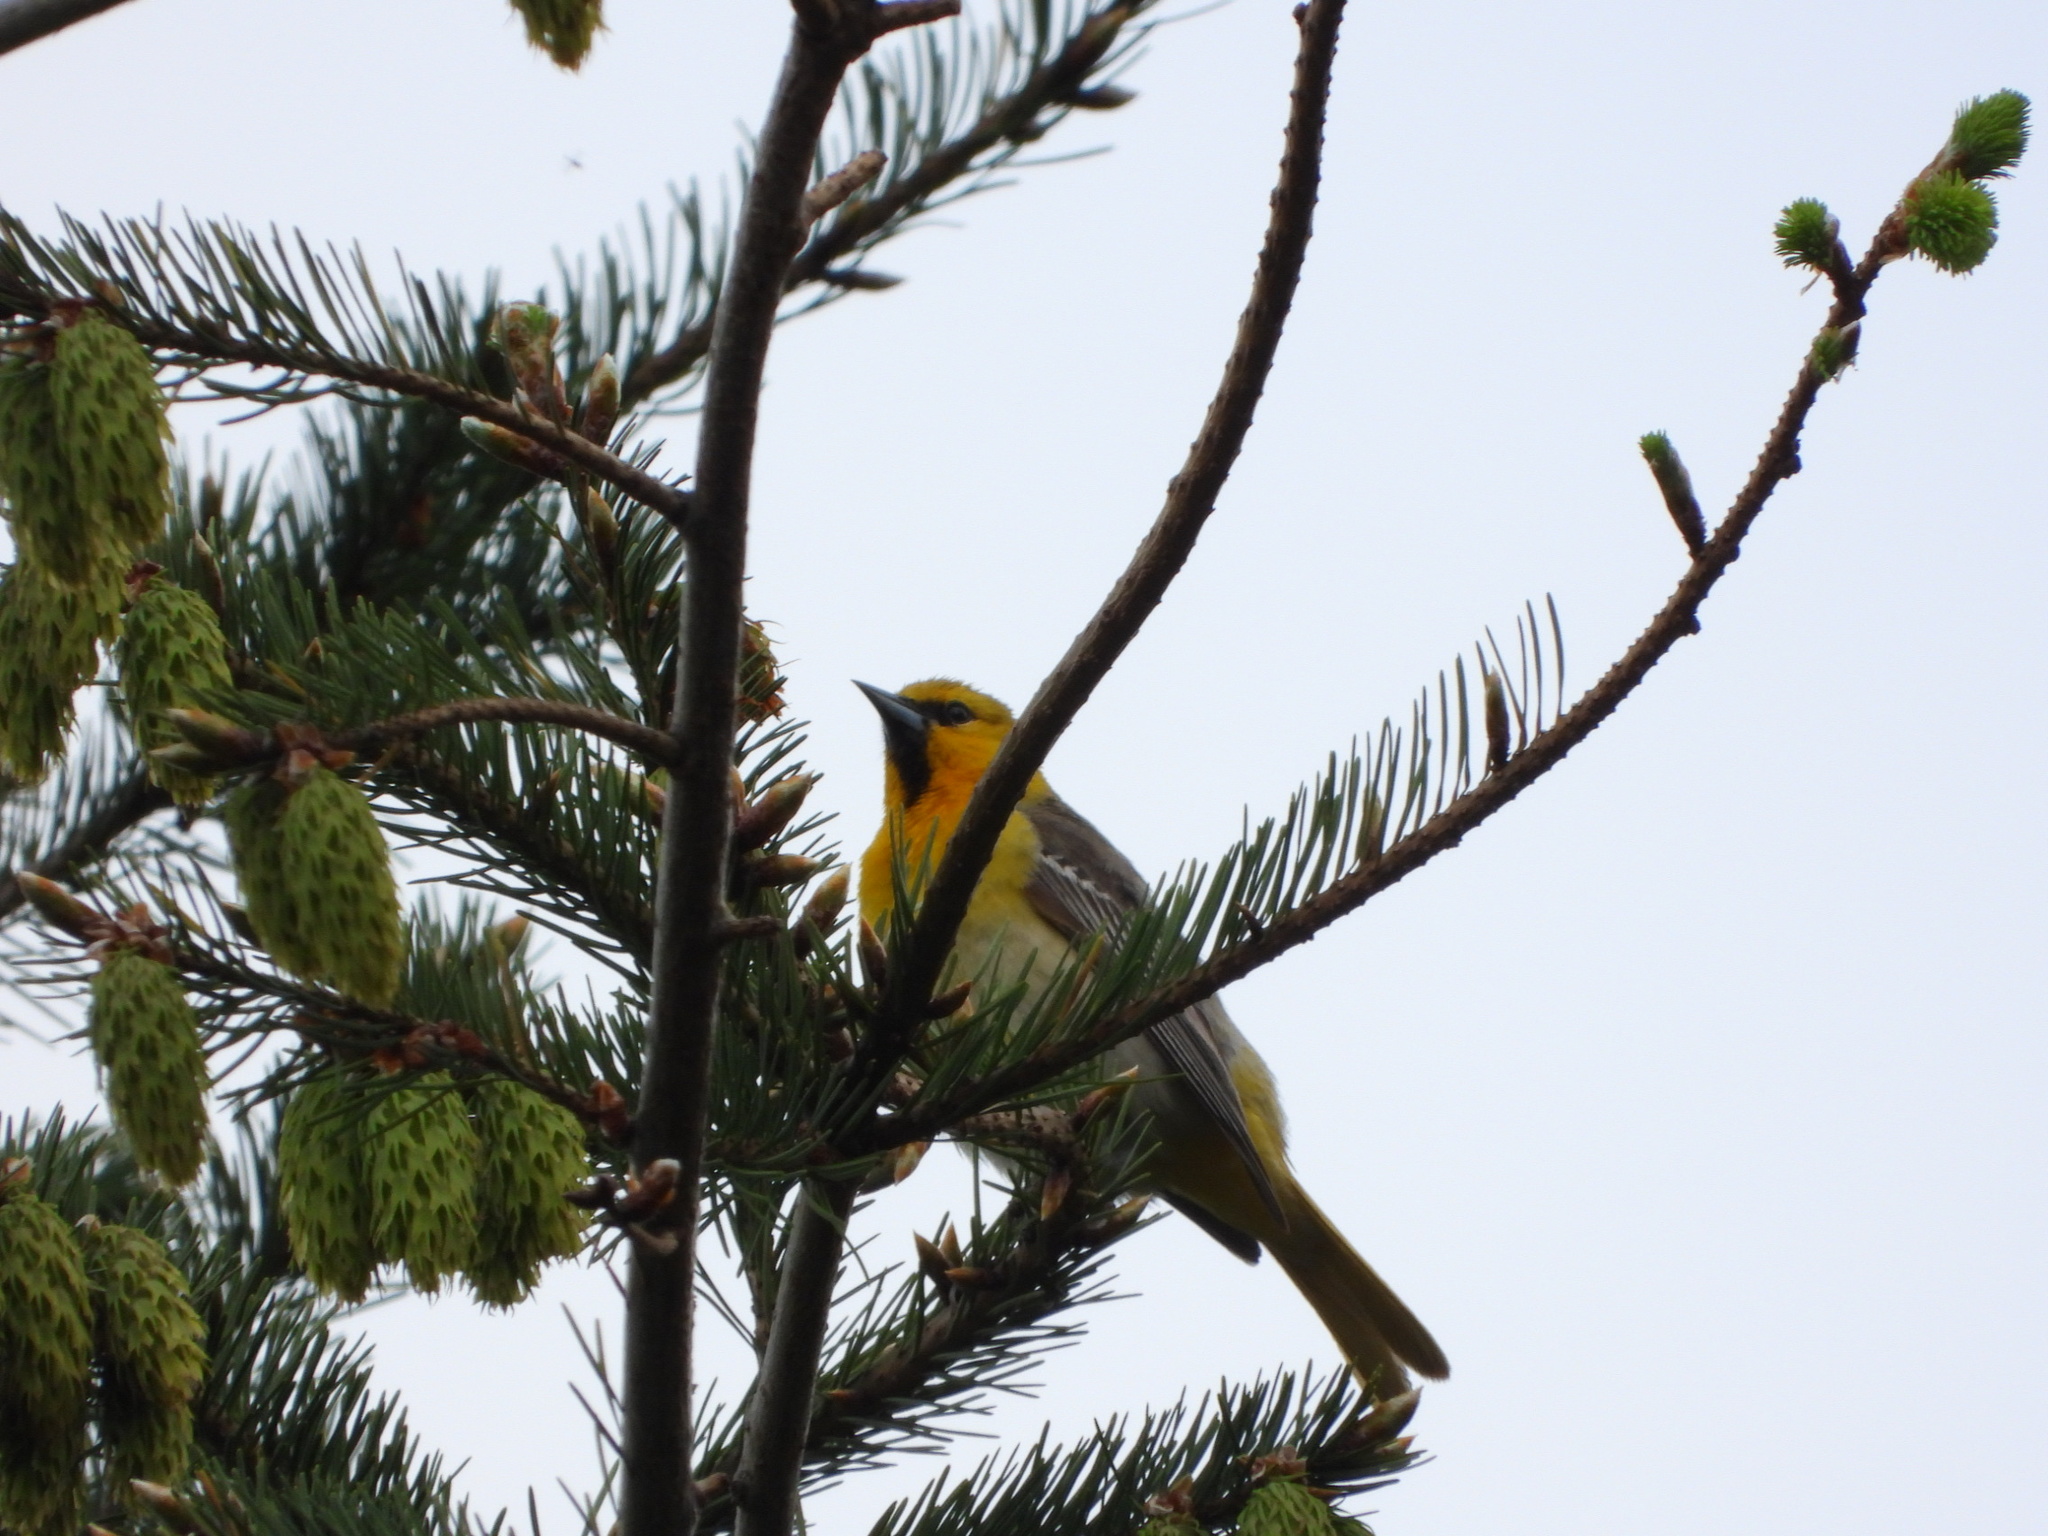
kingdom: Animalia
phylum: Chordata
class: Aves
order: Passeriformes
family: Icteridae
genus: Icterus
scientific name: Icterus bullockii
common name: Bullock's oriole
